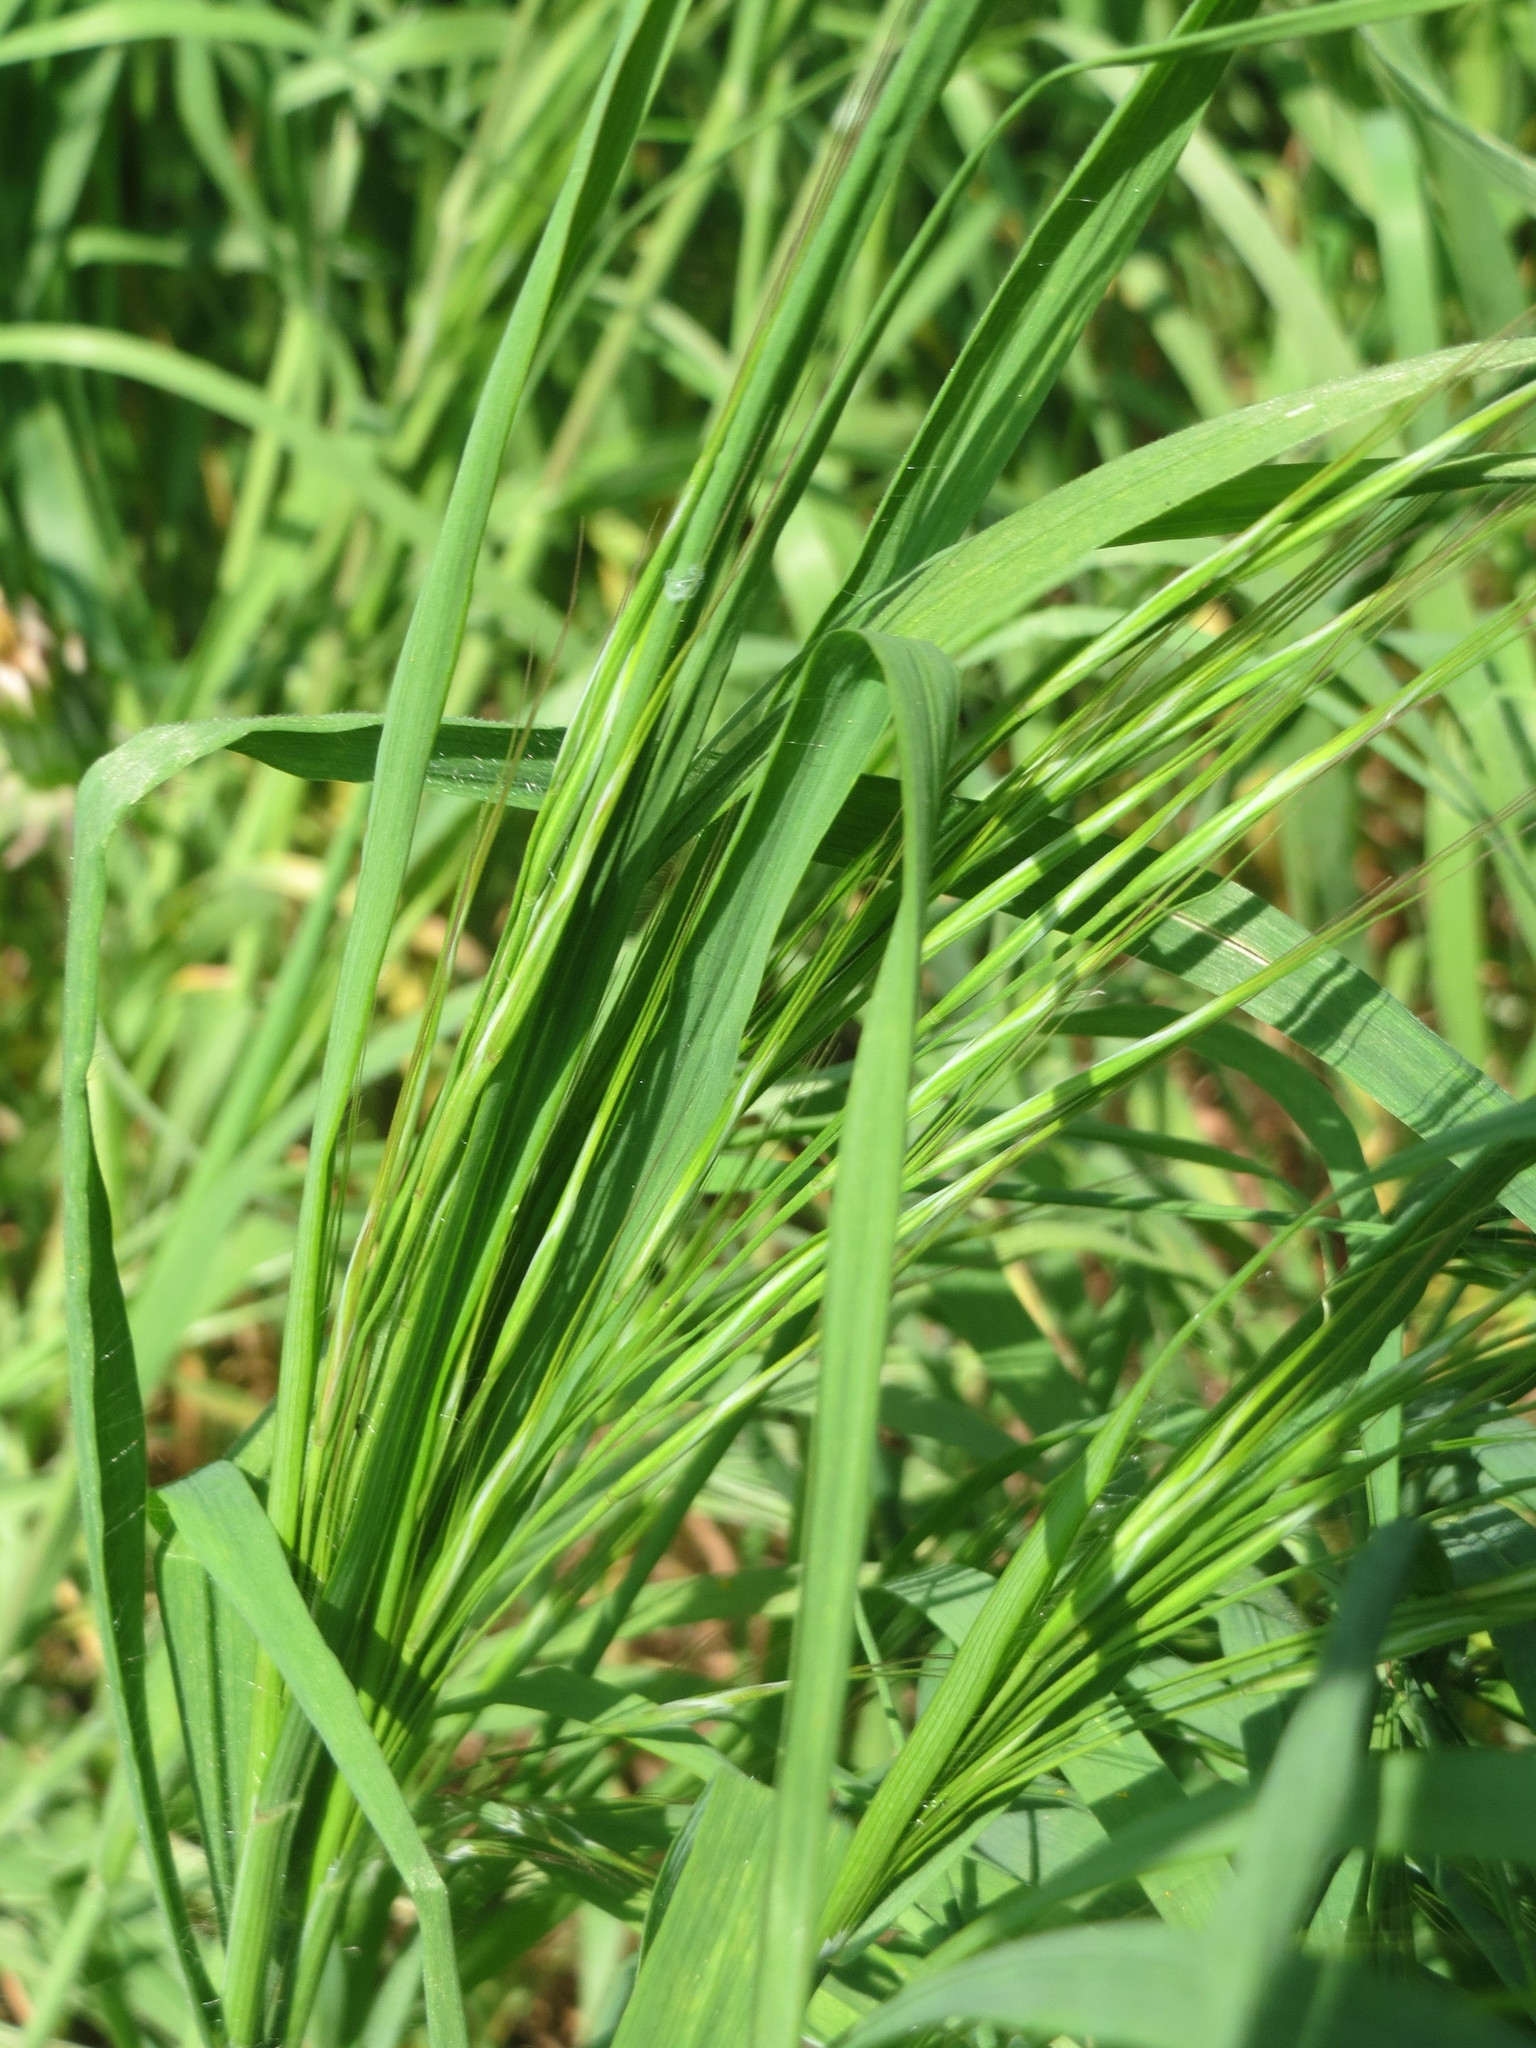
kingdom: Plantae
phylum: Tracheophyta
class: Liliopsida
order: Poales
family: Poaceae
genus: Bromus
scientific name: Bromus sterilis
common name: Poverty brome
